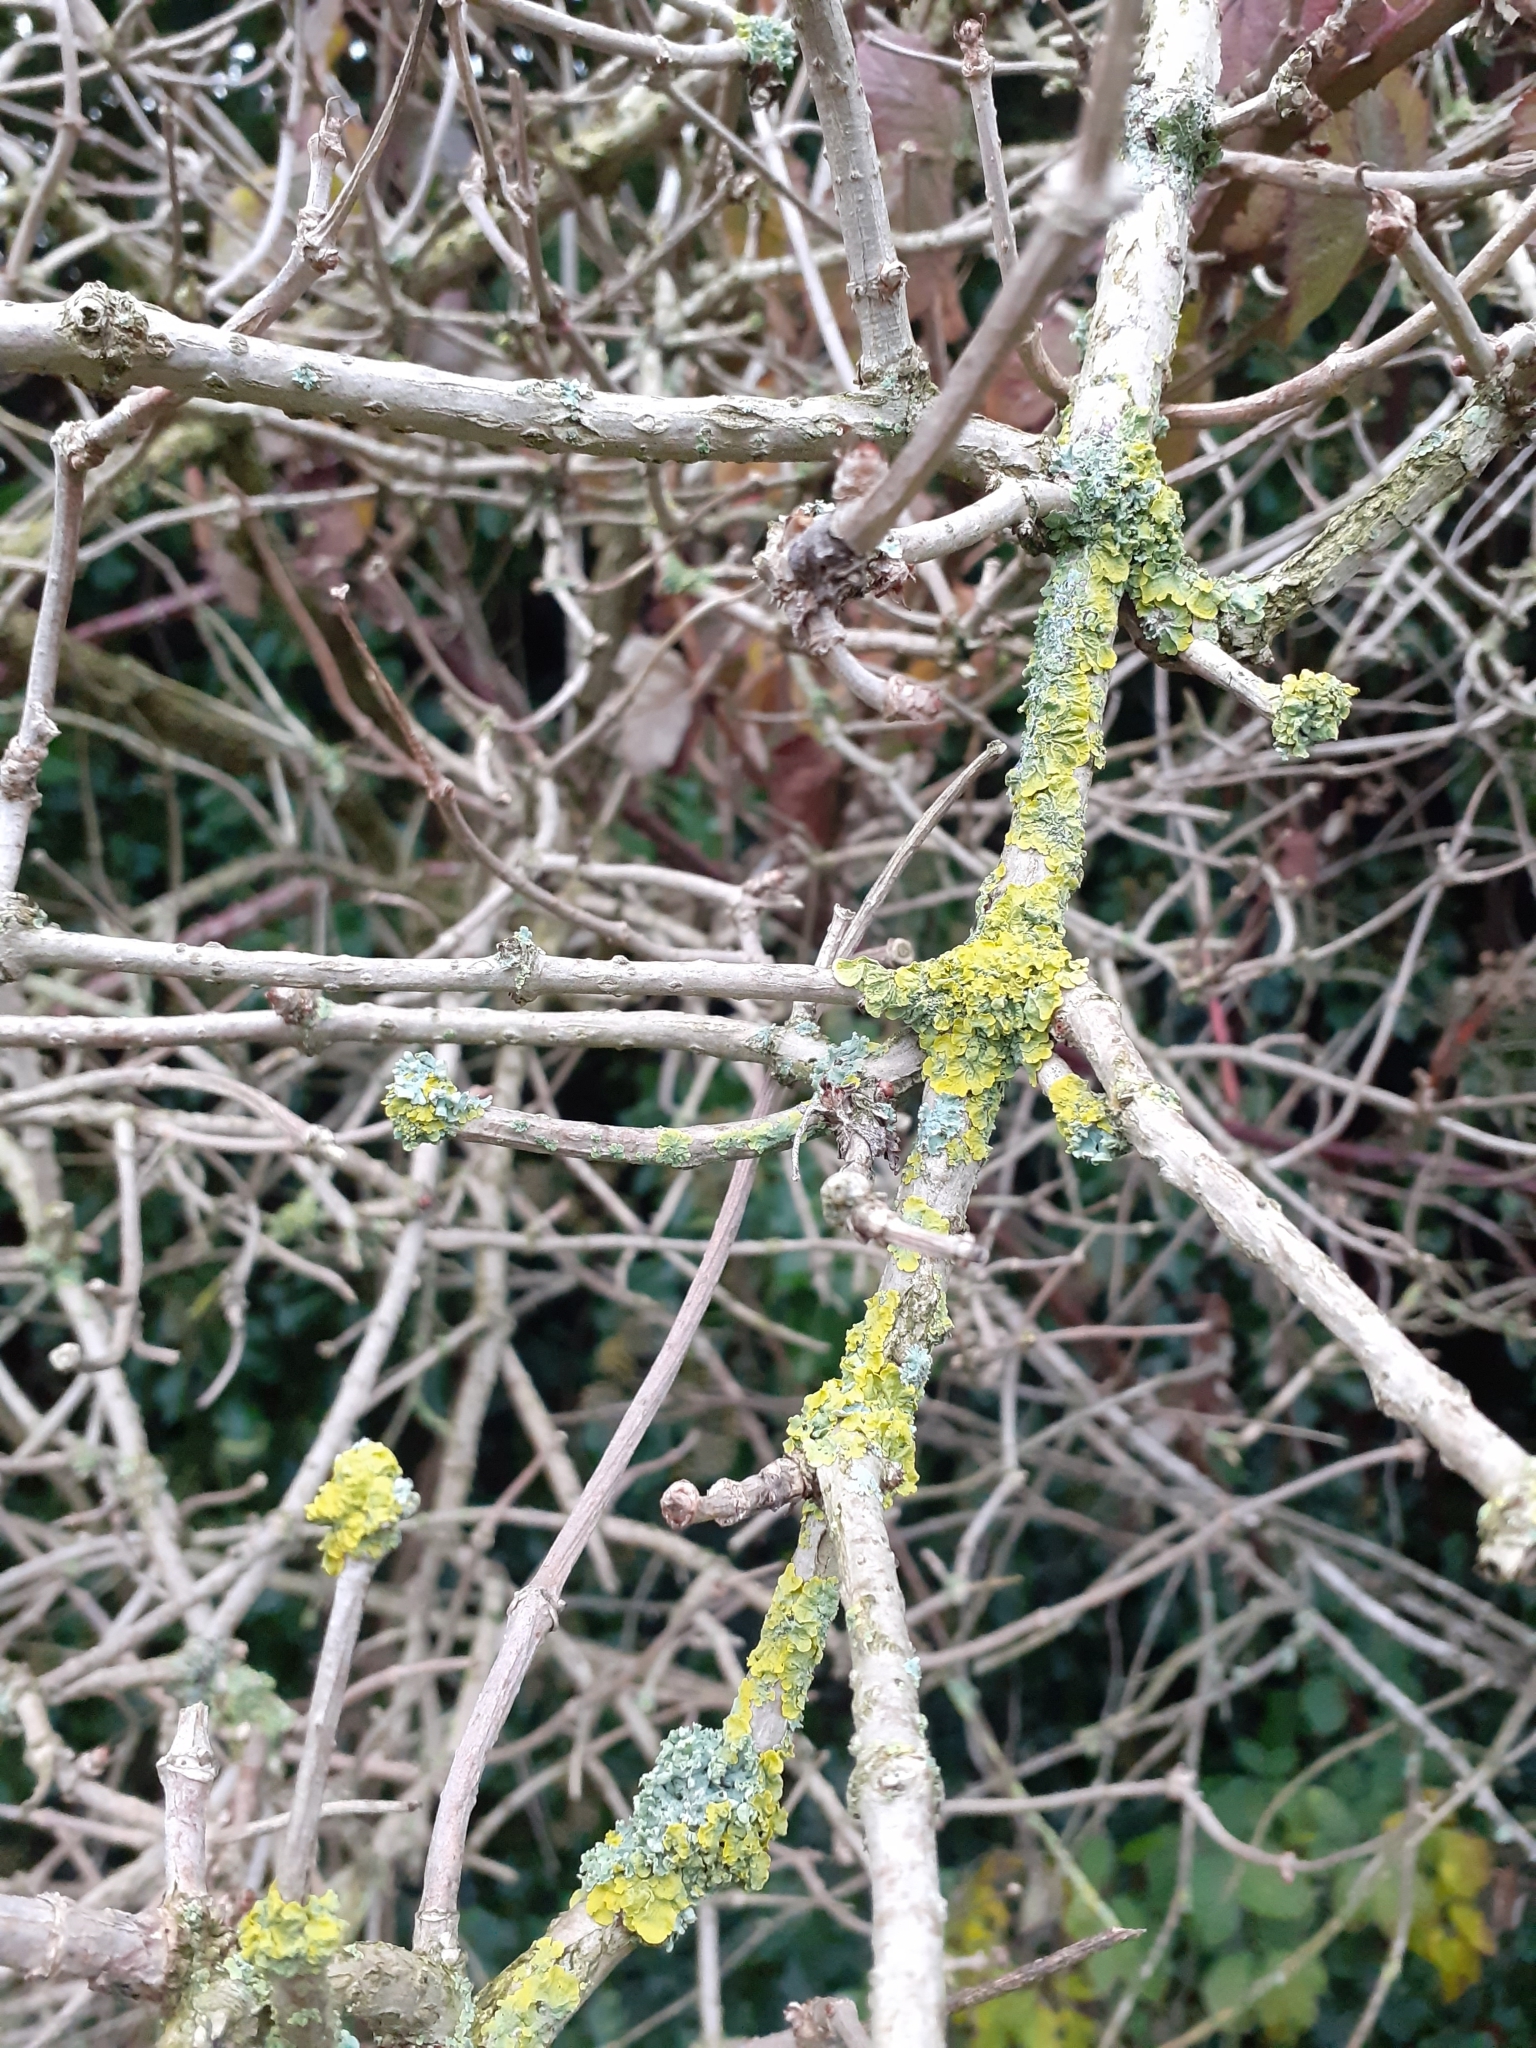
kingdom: Fungi
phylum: Ascomycota
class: Lecanoromycetes
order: Teloschistales
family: Teloschistaceae
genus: Xanthoria
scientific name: Xanthoria parietina
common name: Common orange lichen
